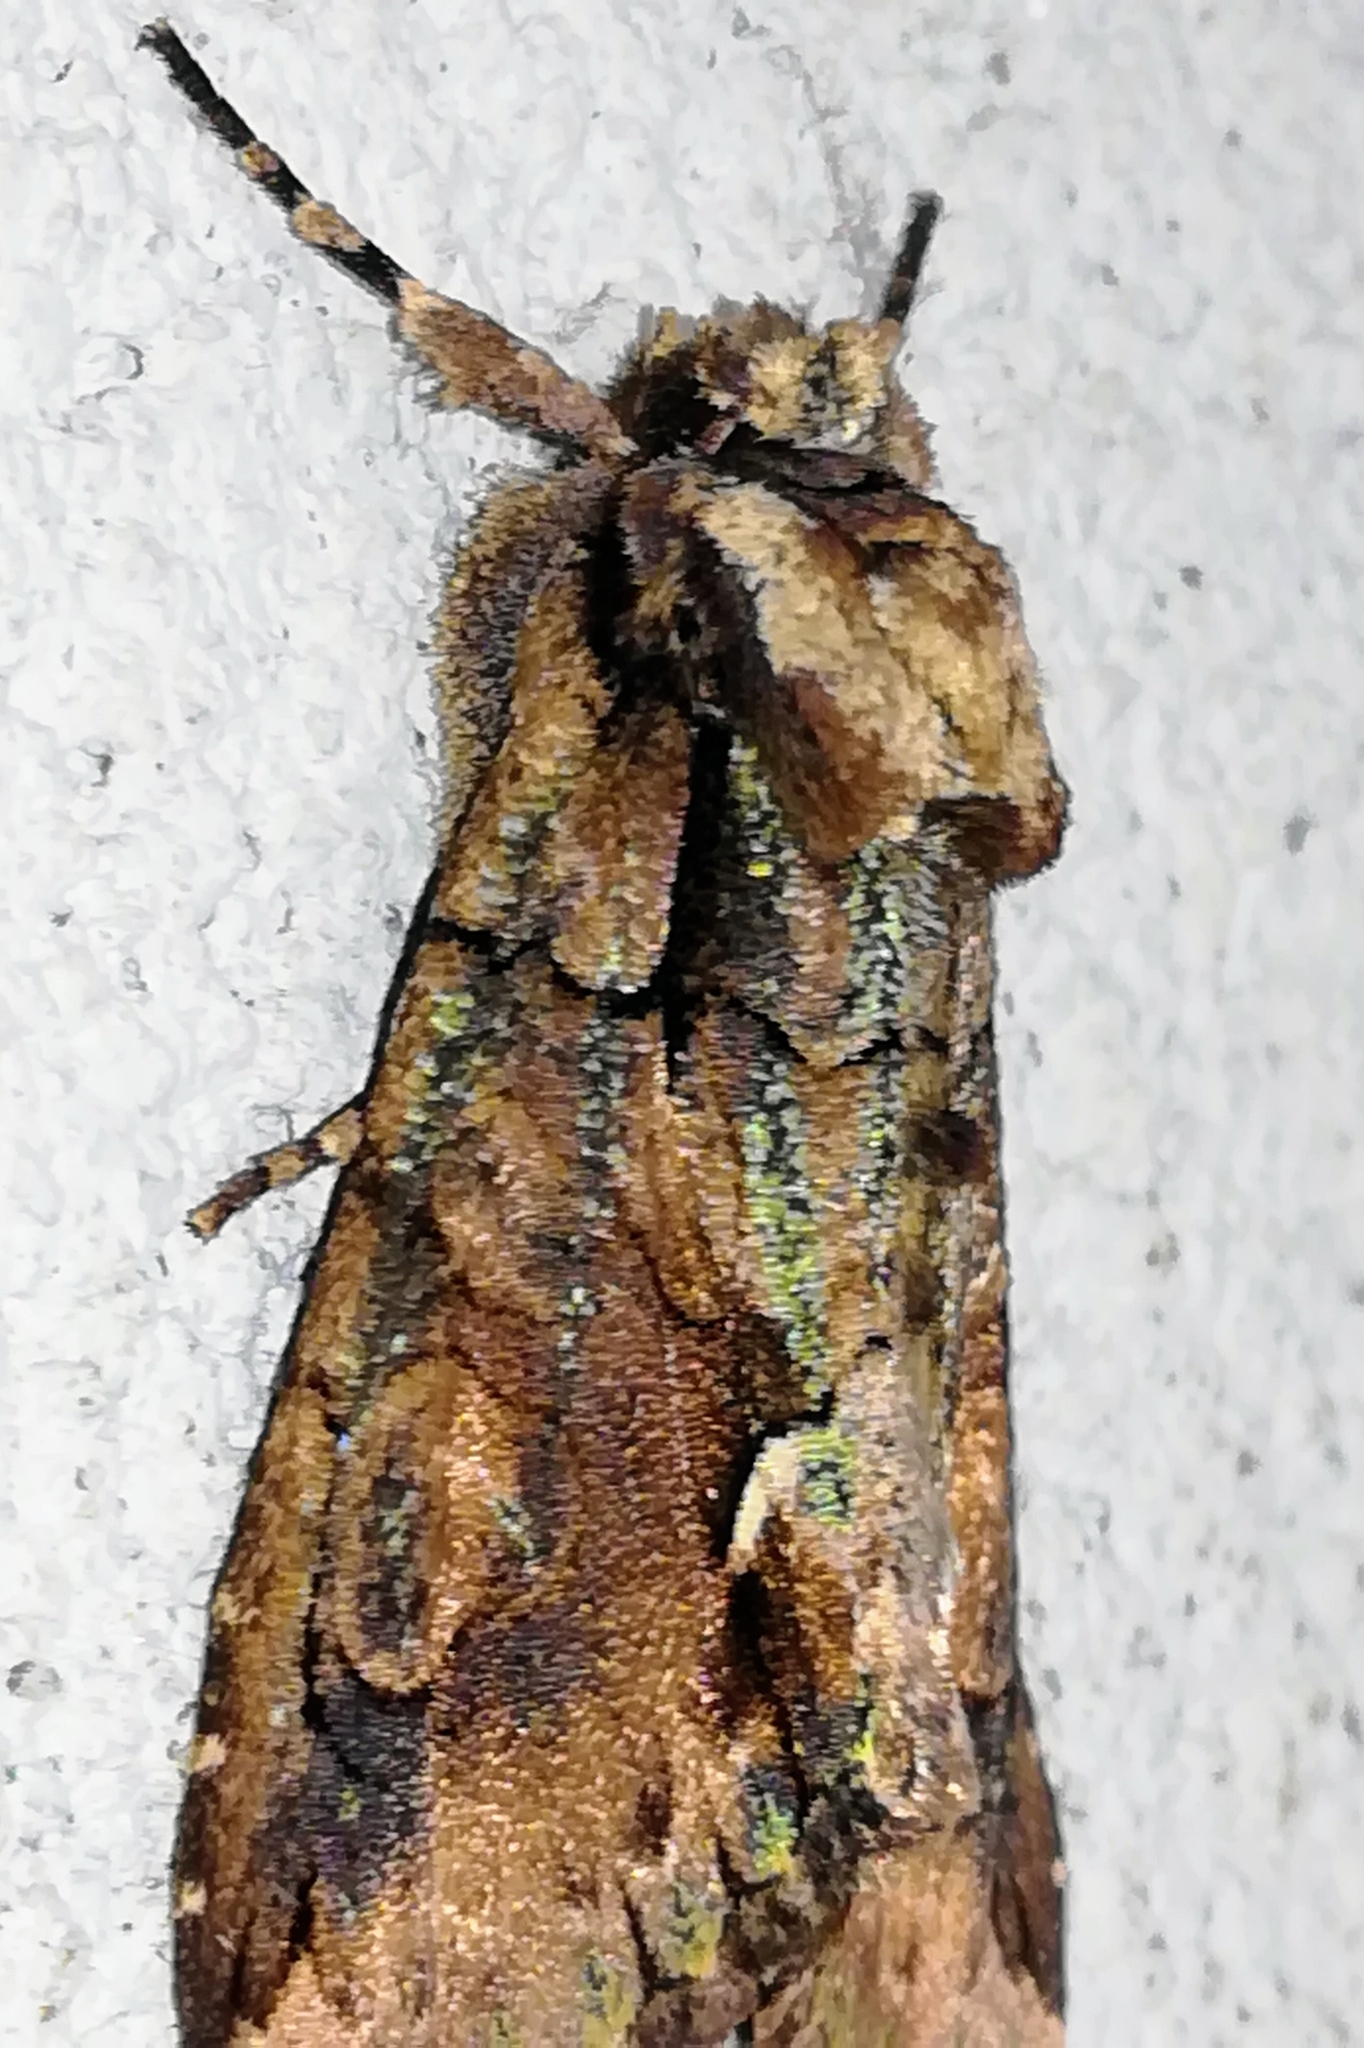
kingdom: Animalia
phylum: Arthropoda
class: Insecta
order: Lepidoptera
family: Noctuidae
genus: Allophyes
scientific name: Allophyes oxyacanthae
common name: Green-brindled crescent
